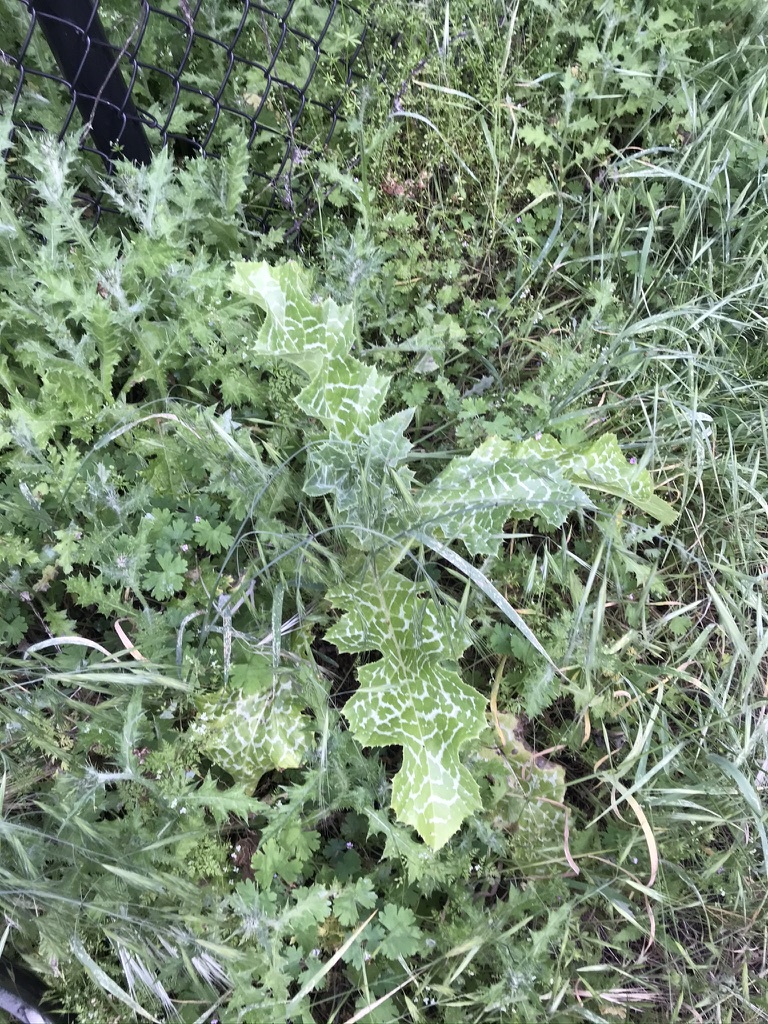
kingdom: Plantae
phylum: Tracheophyta
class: Magnoliopsida
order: Asterales
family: Asteraceae
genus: Silybum
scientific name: Silybum marianum
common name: Milk thistle
